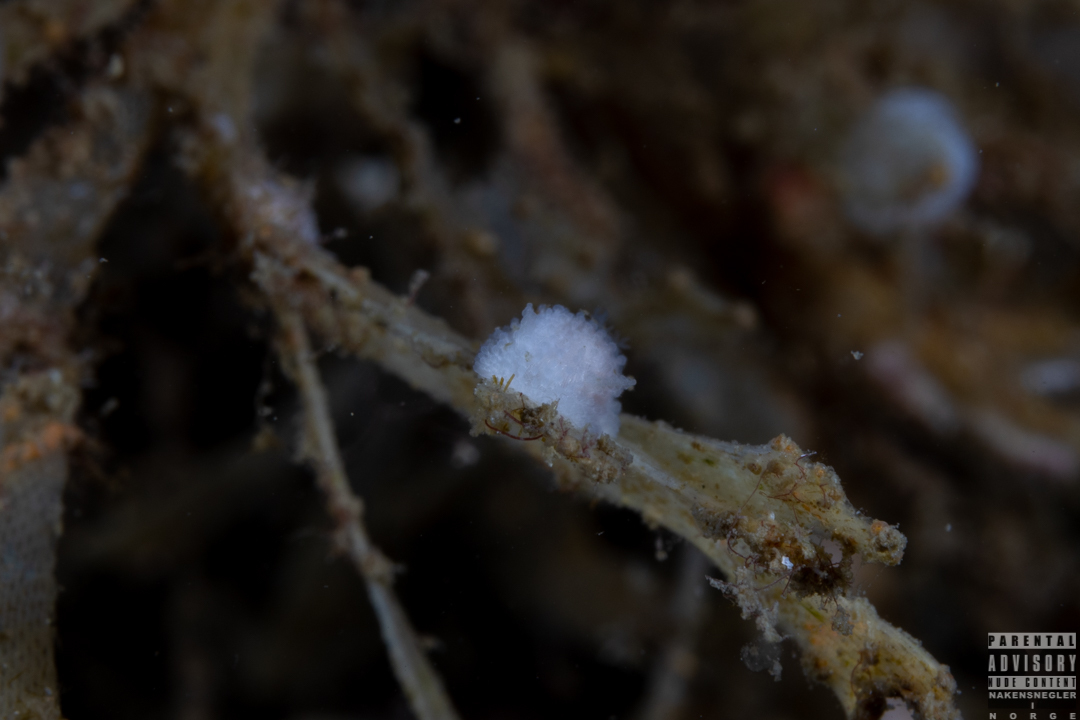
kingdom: Animalia
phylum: Mollusca
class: Gastropoda
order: Nudibranchia
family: Onchidorididae
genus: Onchidoris
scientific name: Onchidoris muricata
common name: Rough doris
